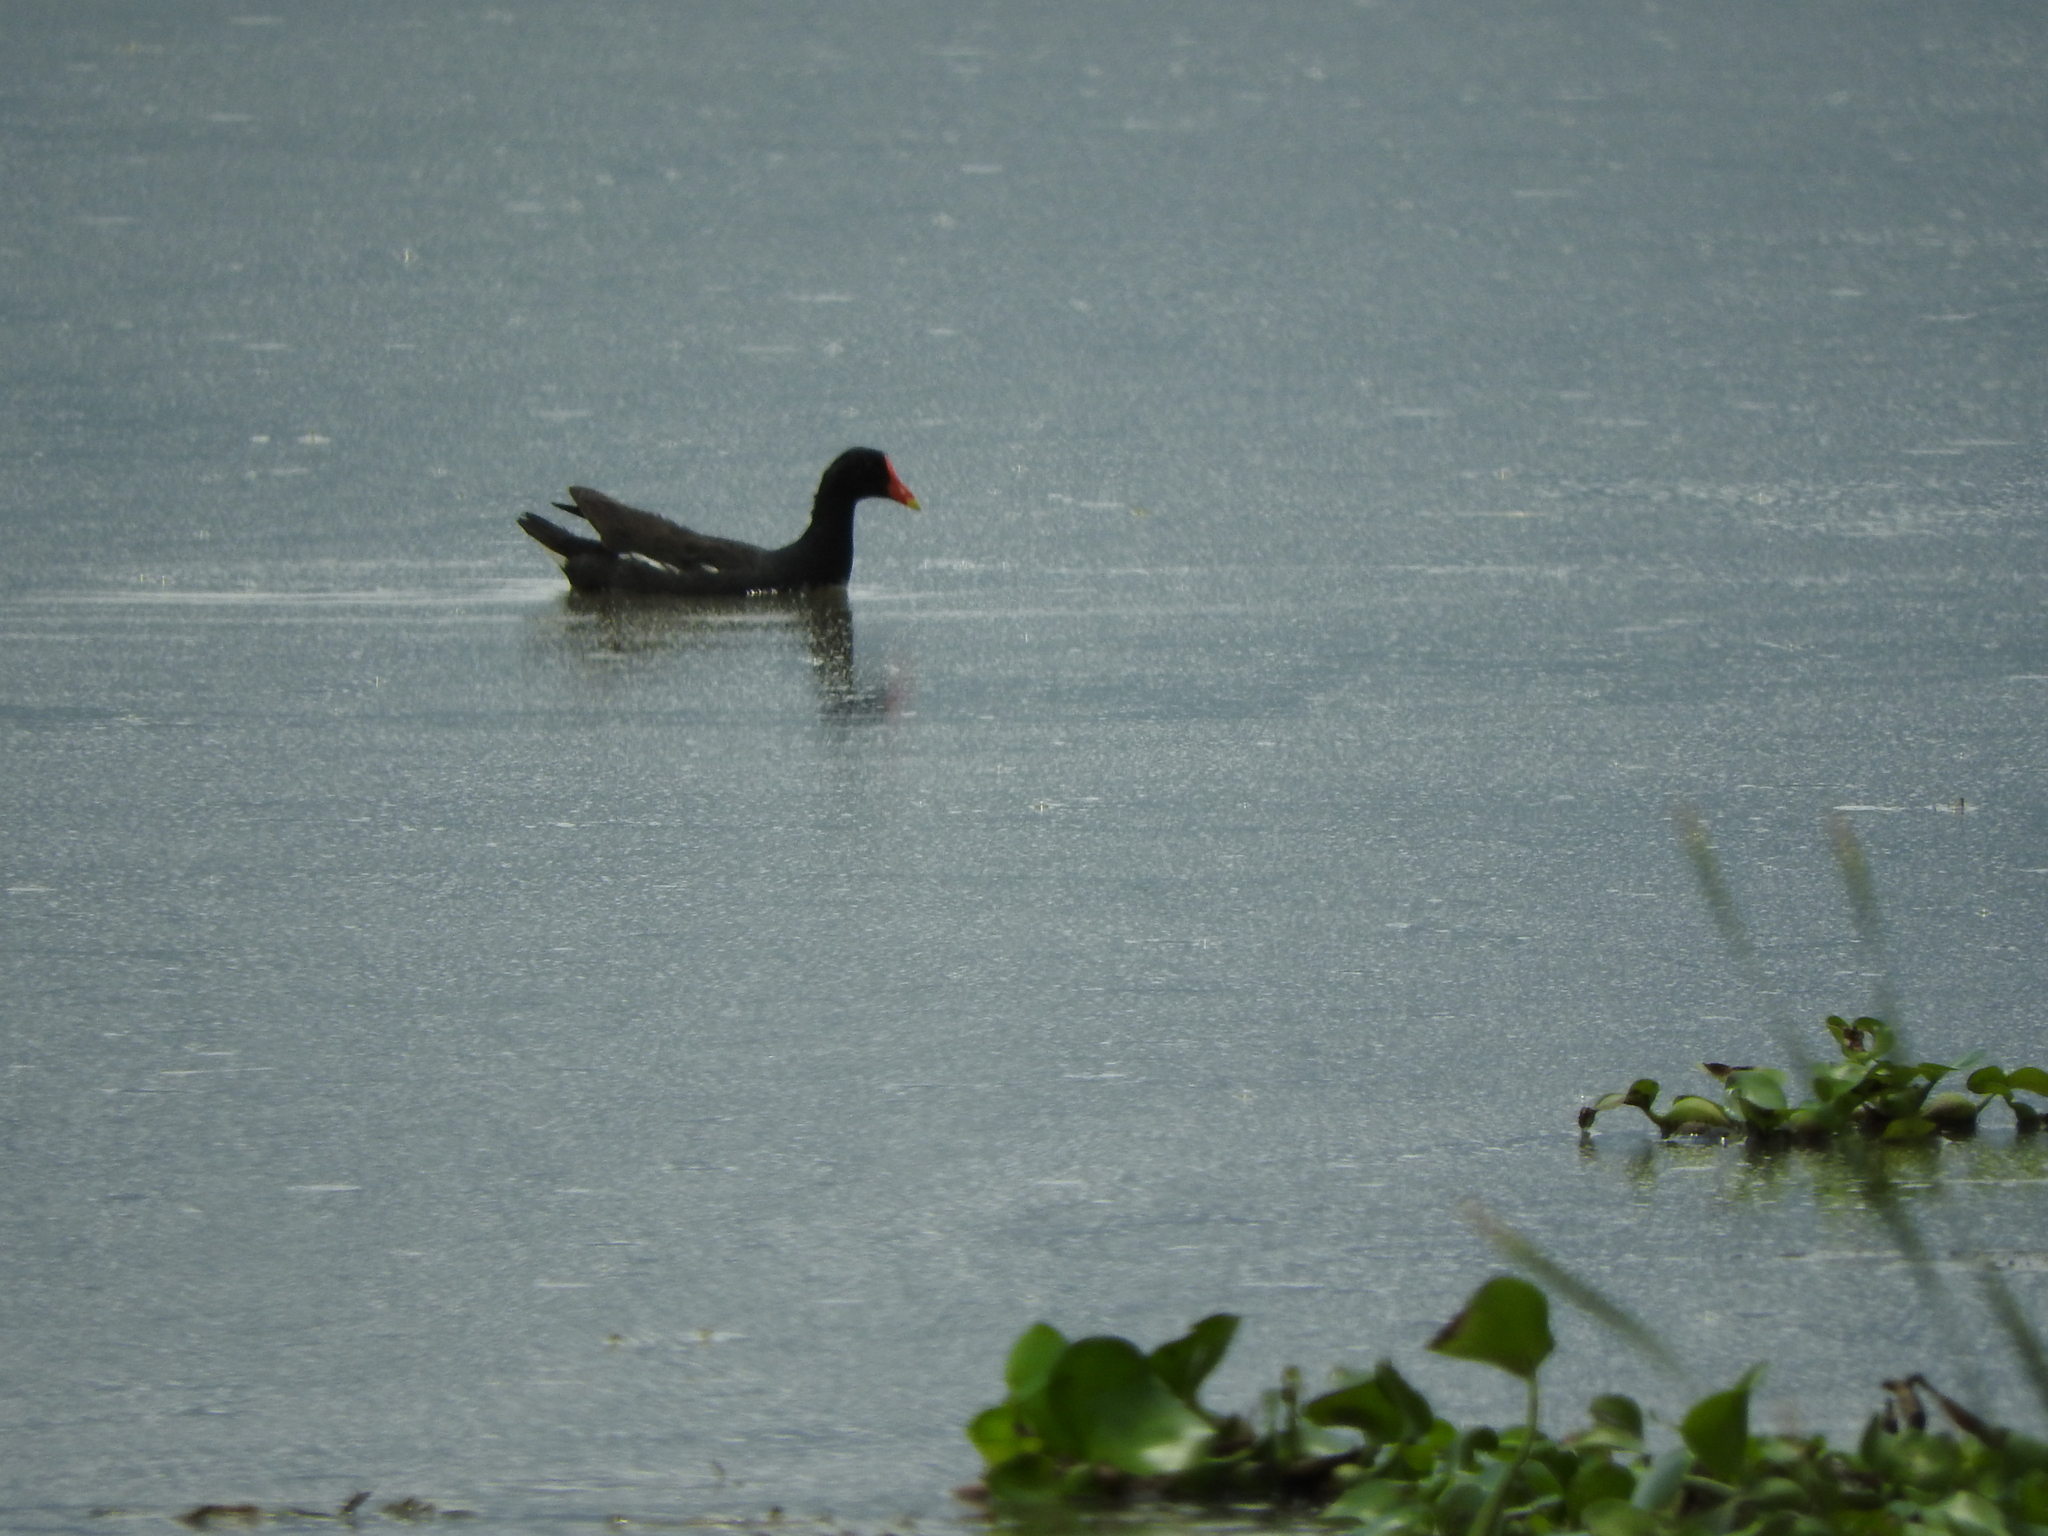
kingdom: Animalia
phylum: Chordata
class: Aves
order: Gruiformes
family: Rallidae
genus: Gallinula
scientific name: Gallinula chloropus
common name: Common moorhen
